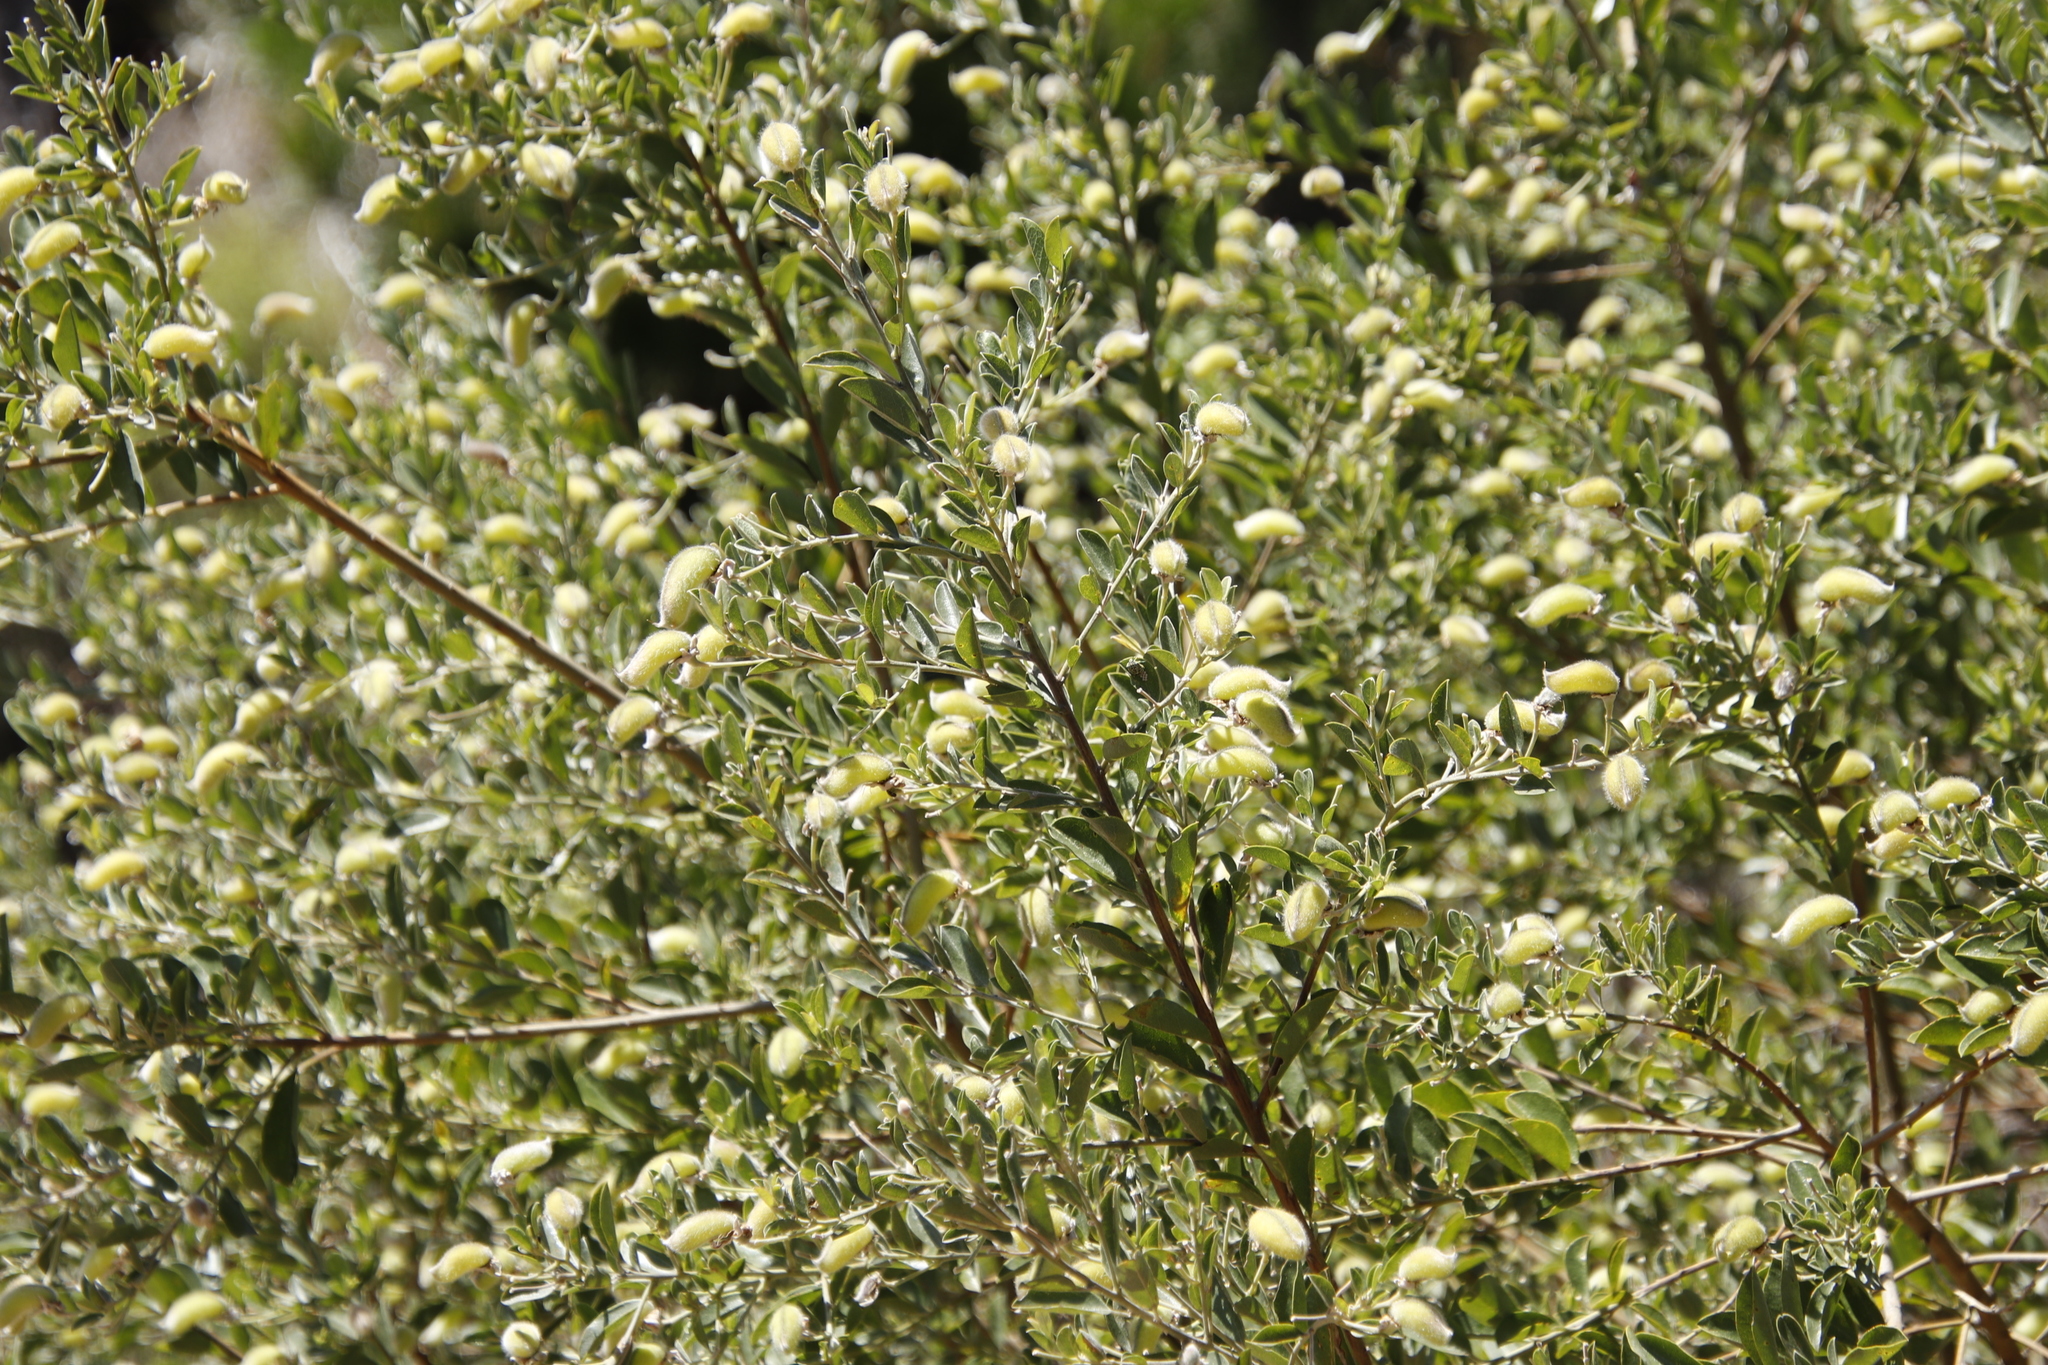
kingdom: Plantae
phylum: Tracheophyta
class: Magnoliopsida
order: Fabales
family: Fabaceae
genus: Podalyria
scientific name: Podalyria calyptrata
